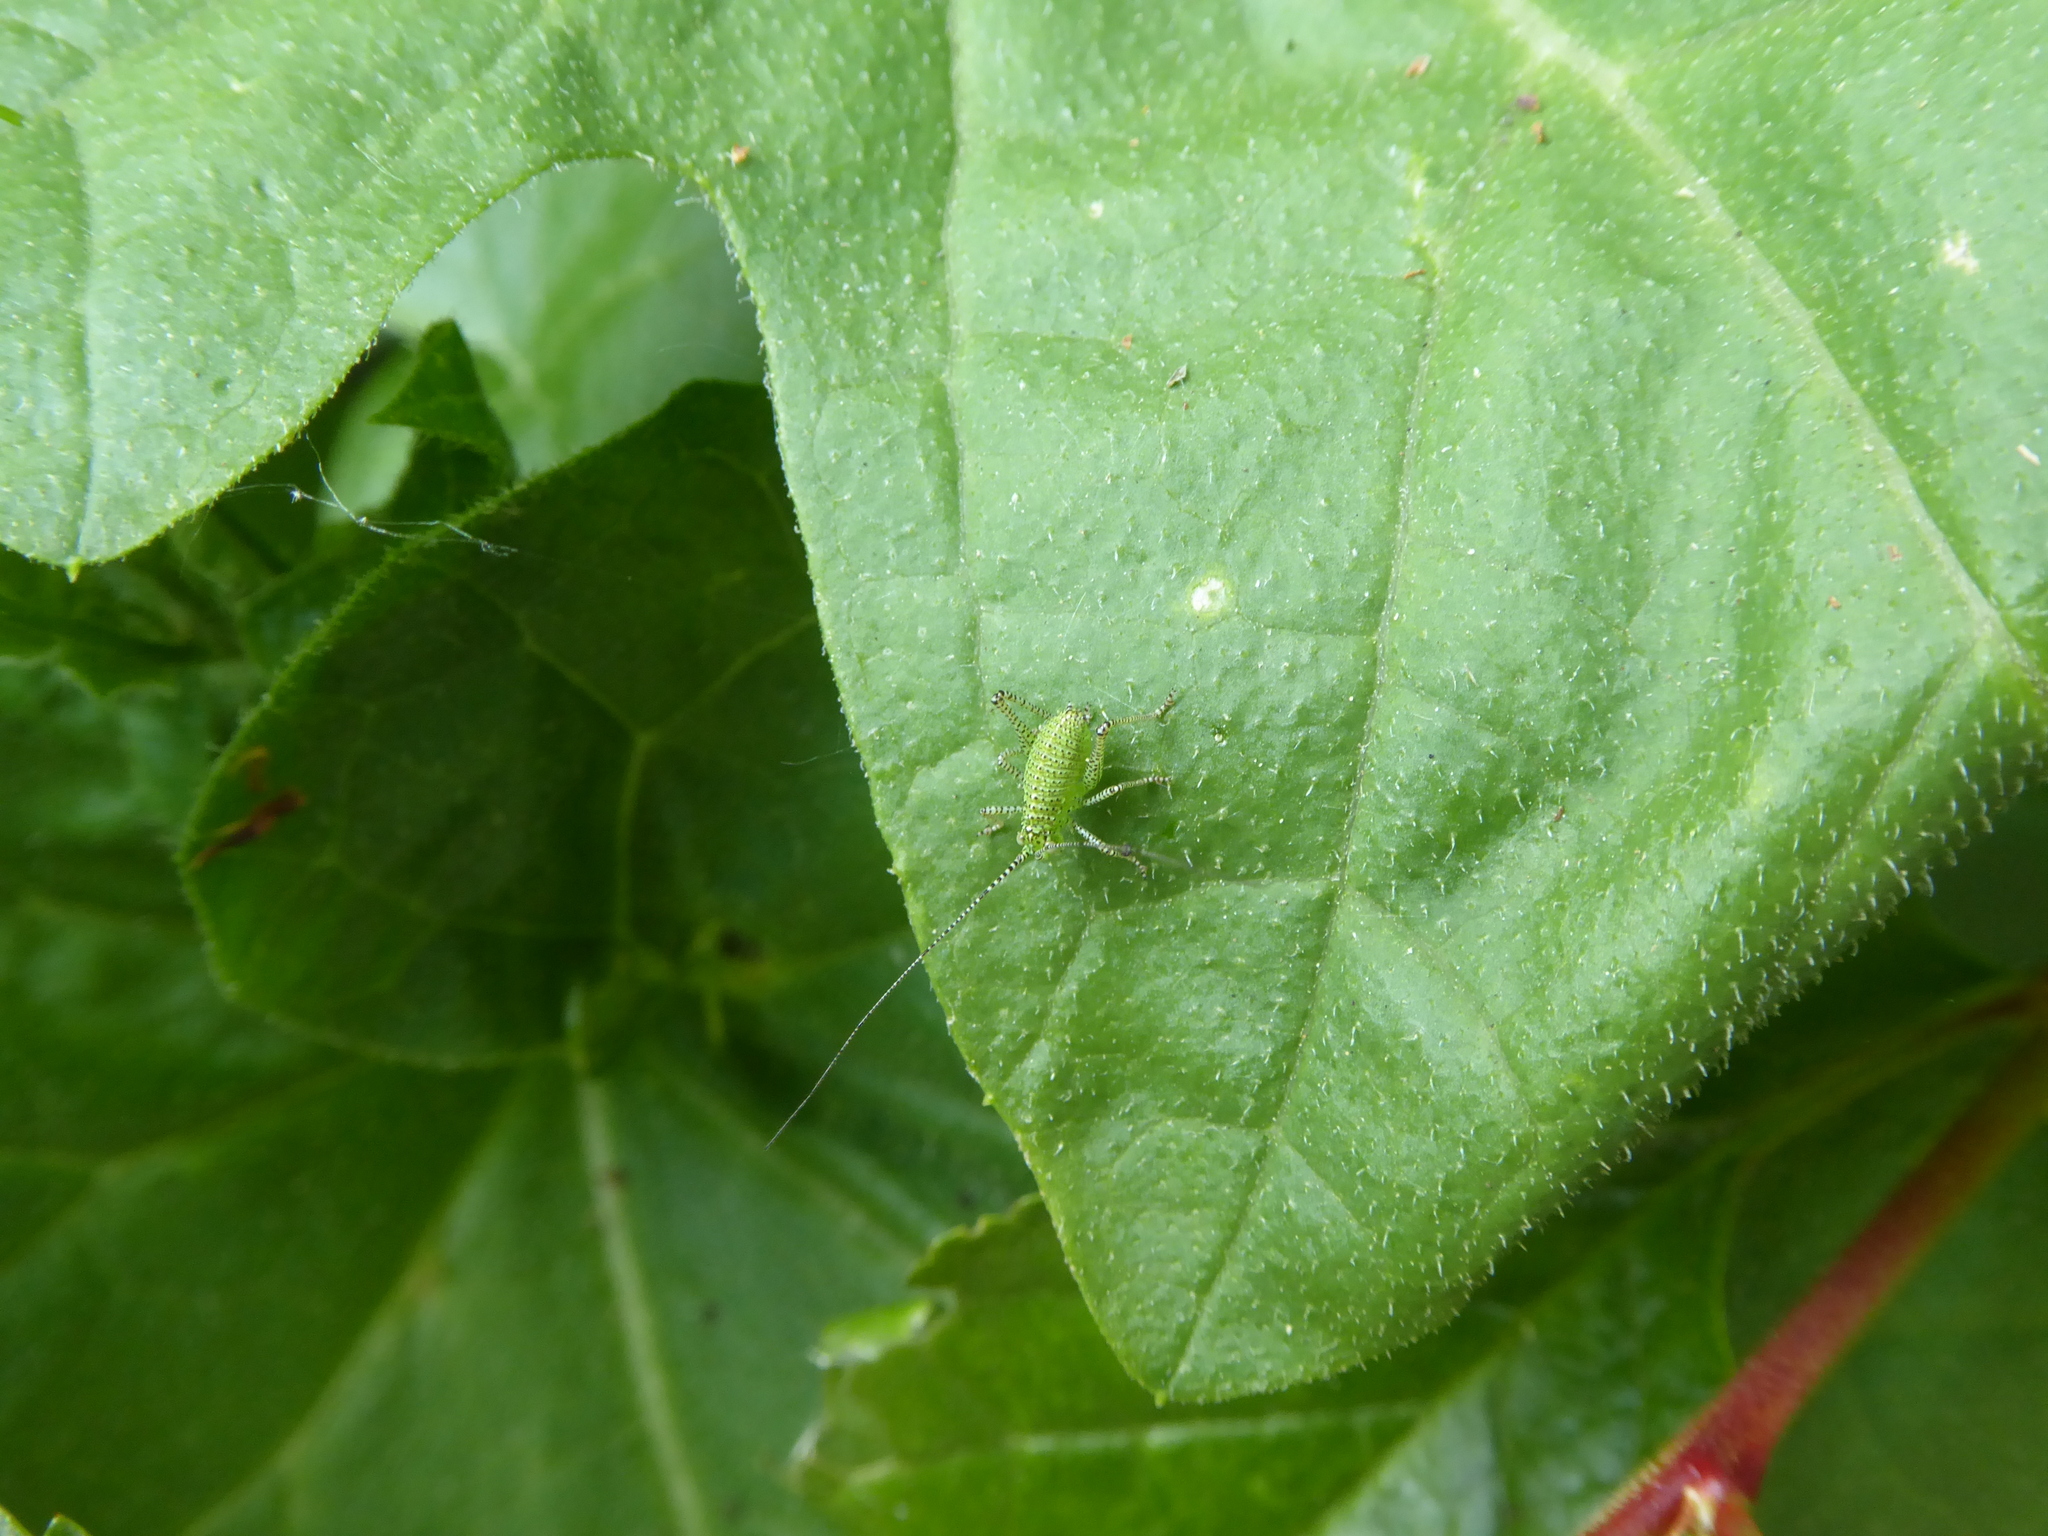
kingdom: Animalia
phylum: Arthropoda
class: Insecta
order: Orthoptera
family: Tettigoniidae
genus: Leptophyes
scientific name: Leptophyes punctatissima
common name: Speckled bush-cricket
